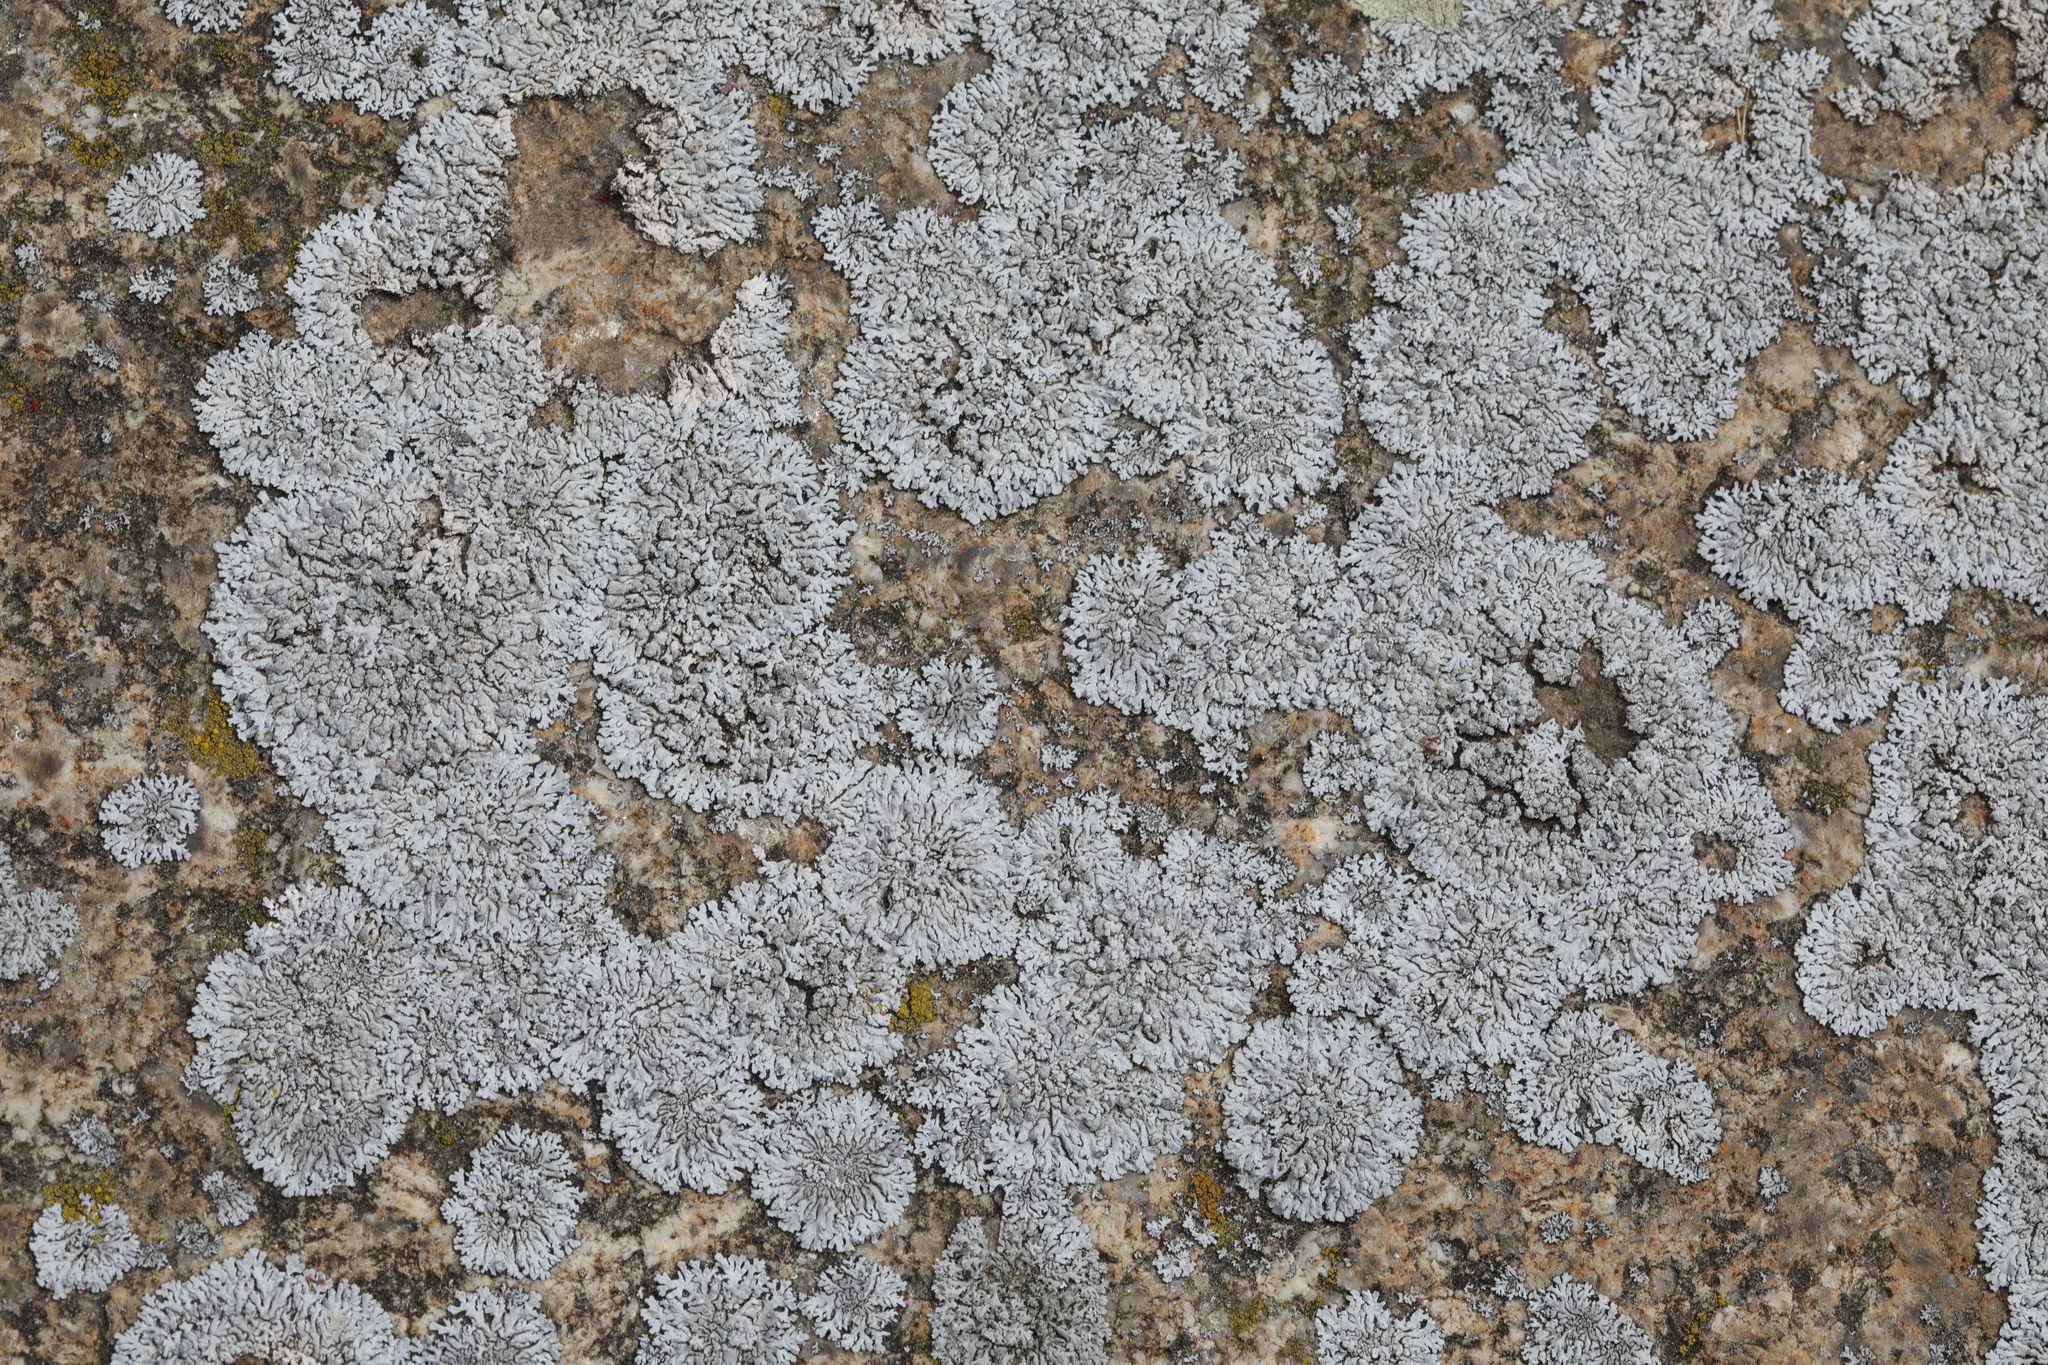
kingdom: Fungi
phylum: Ascomycota
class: Lecanoromycetes
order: Caliciales
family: Physciaceae
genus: Physcia
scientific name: Physcia caesia
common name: Blue-gray rosette lichen
